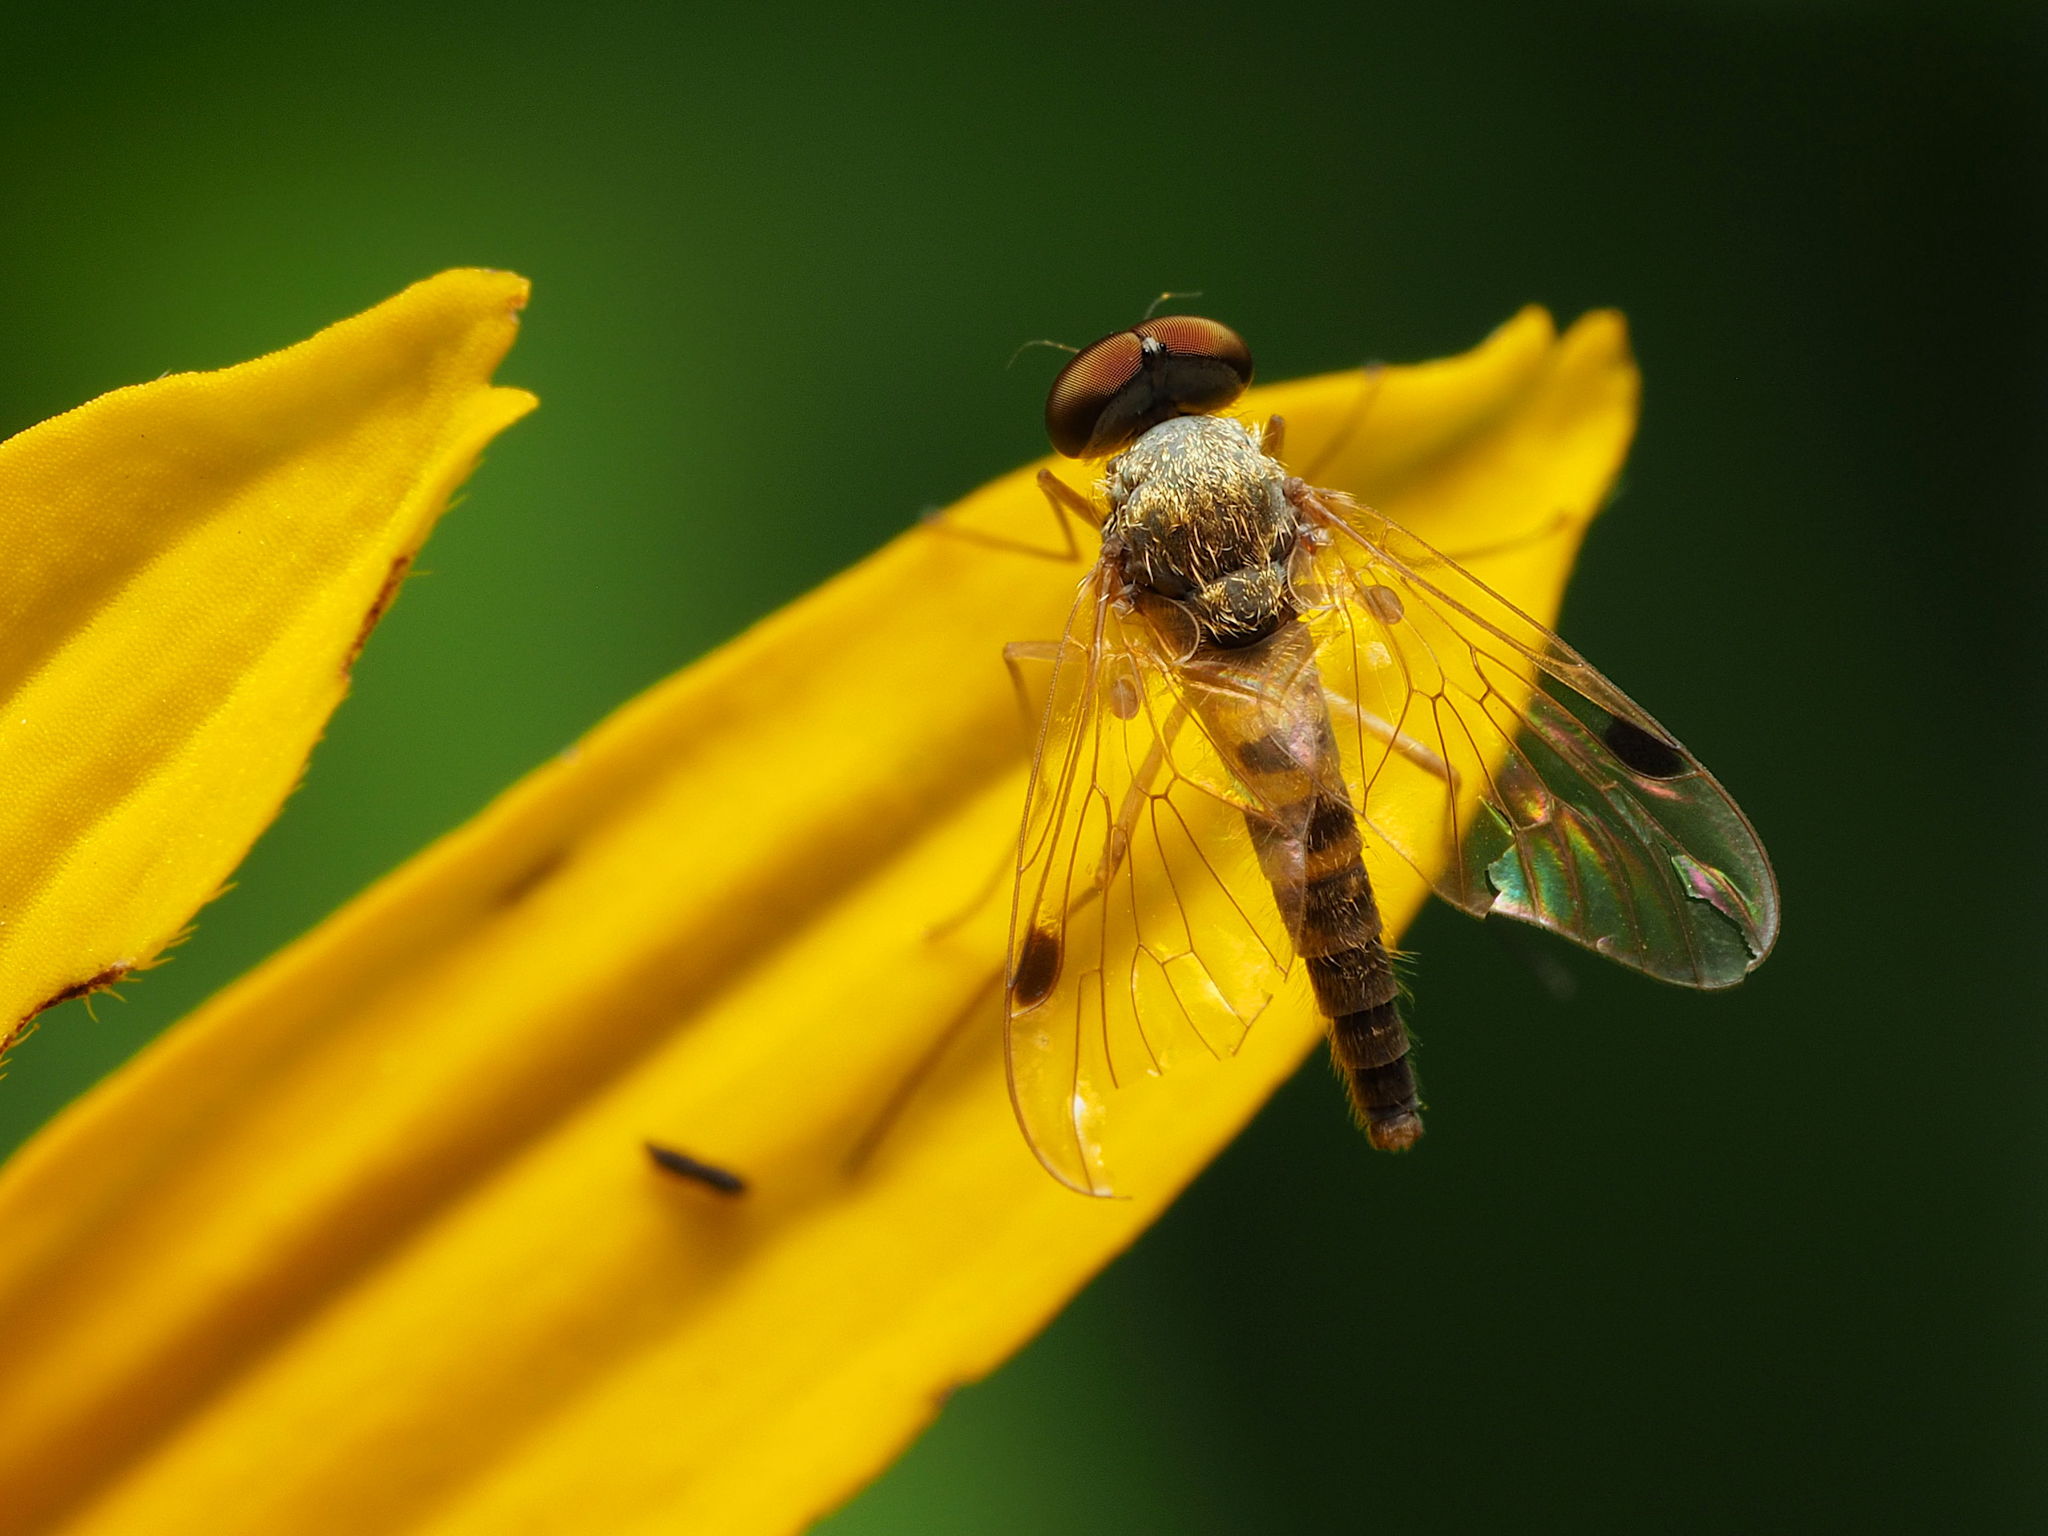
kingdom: Animalia
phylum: Arthropoda
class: Insecta
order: Diptera
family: Rhagionidae
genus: Chrysopilus
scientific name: Chrysopilus modestus
